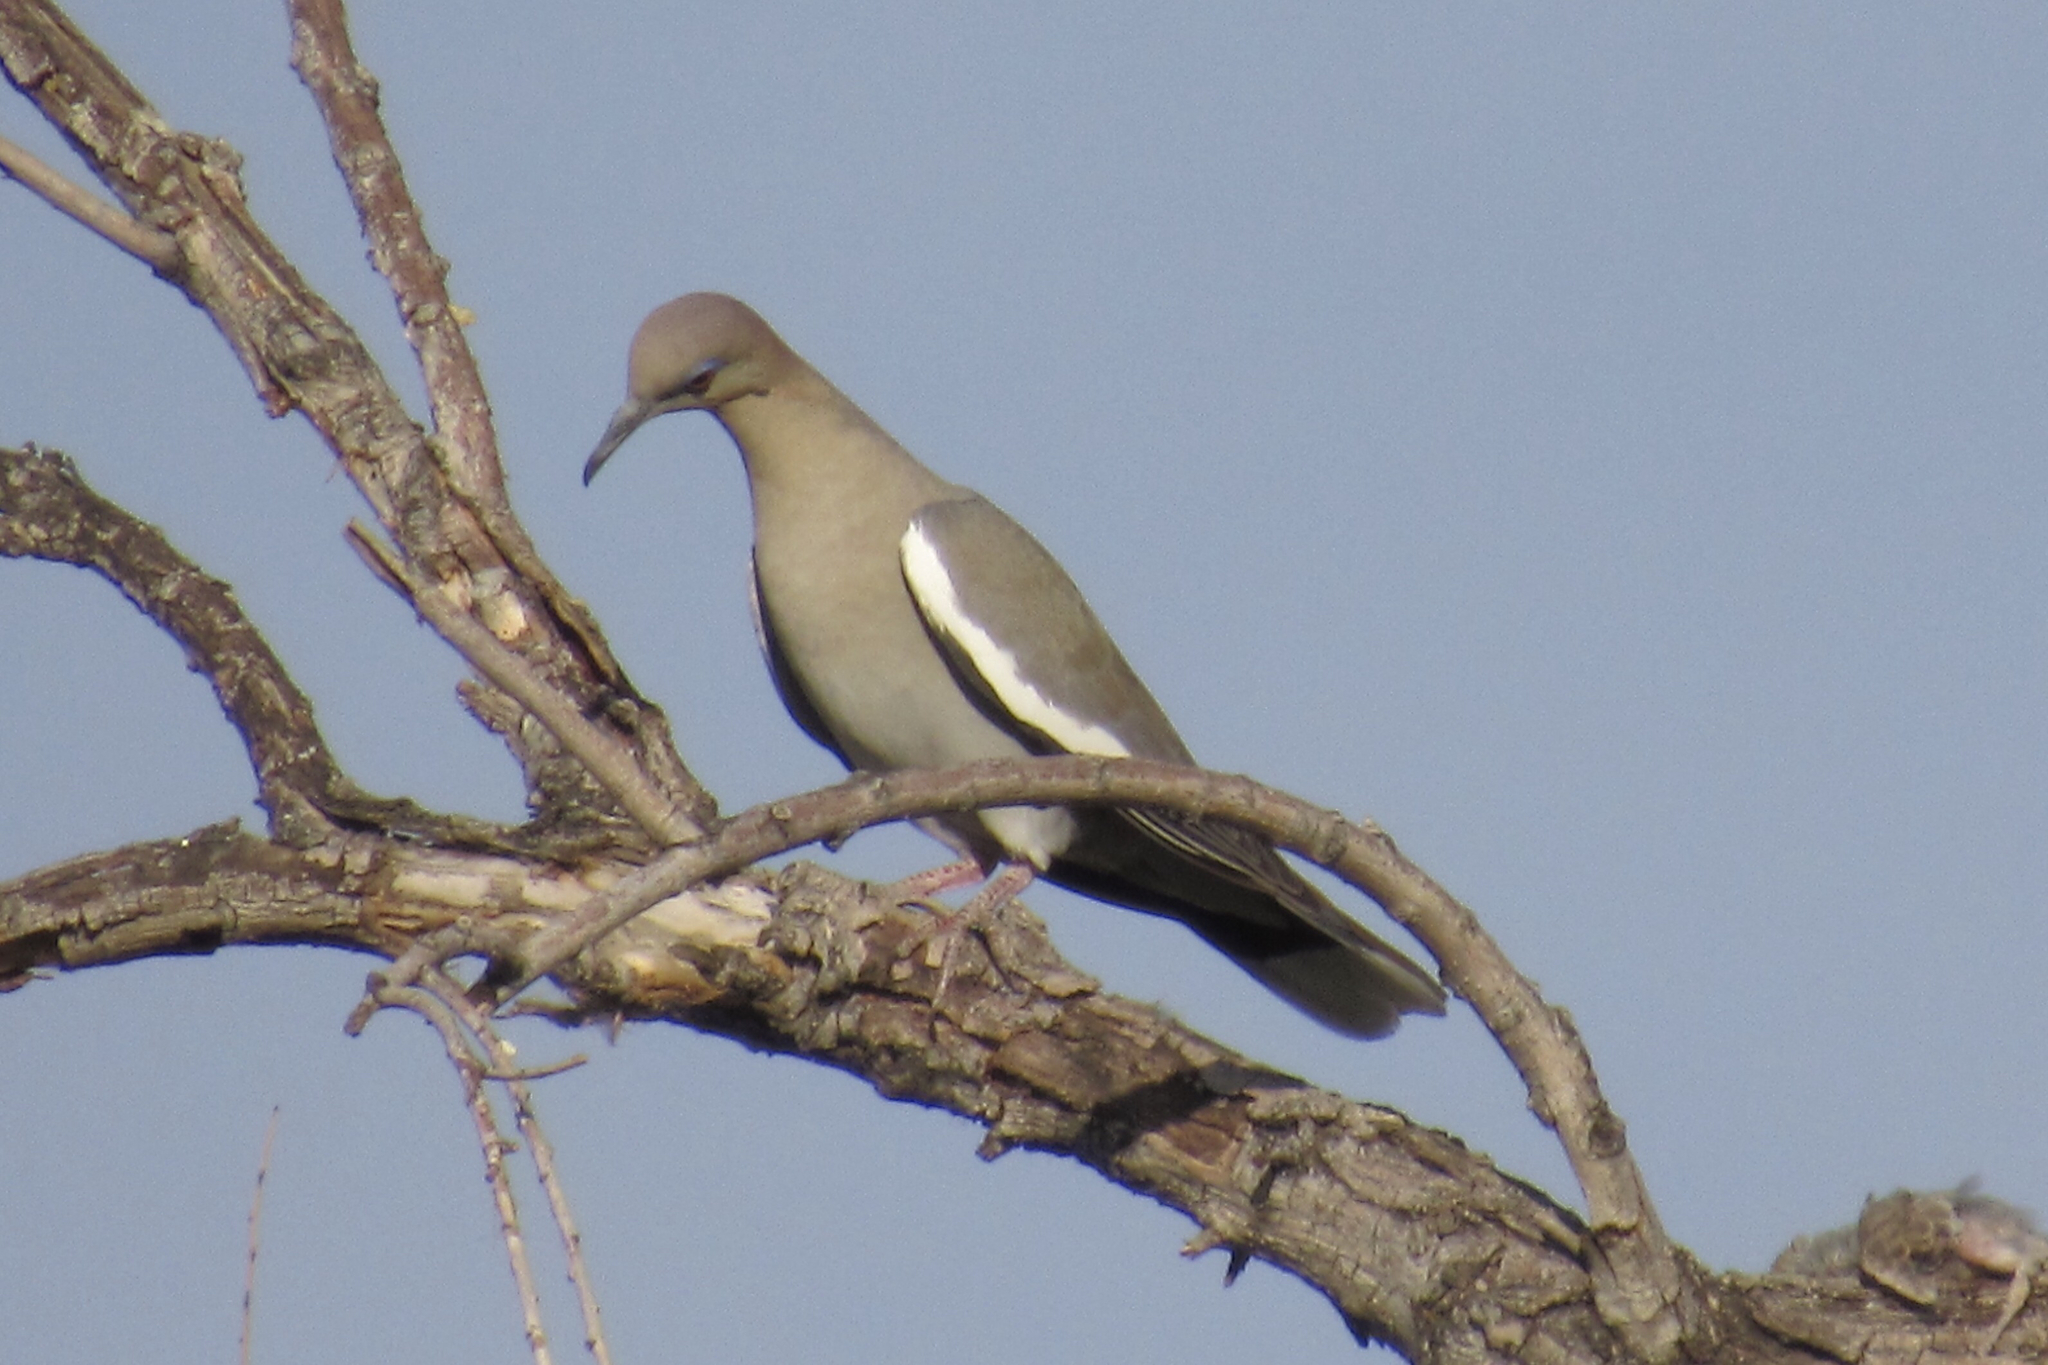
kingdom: Animalia
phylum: Chordata
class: Aves
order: Columbiformes
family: Columbidae
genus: Zenaida
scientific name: Zenaida asiatica
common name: White-winged dove
